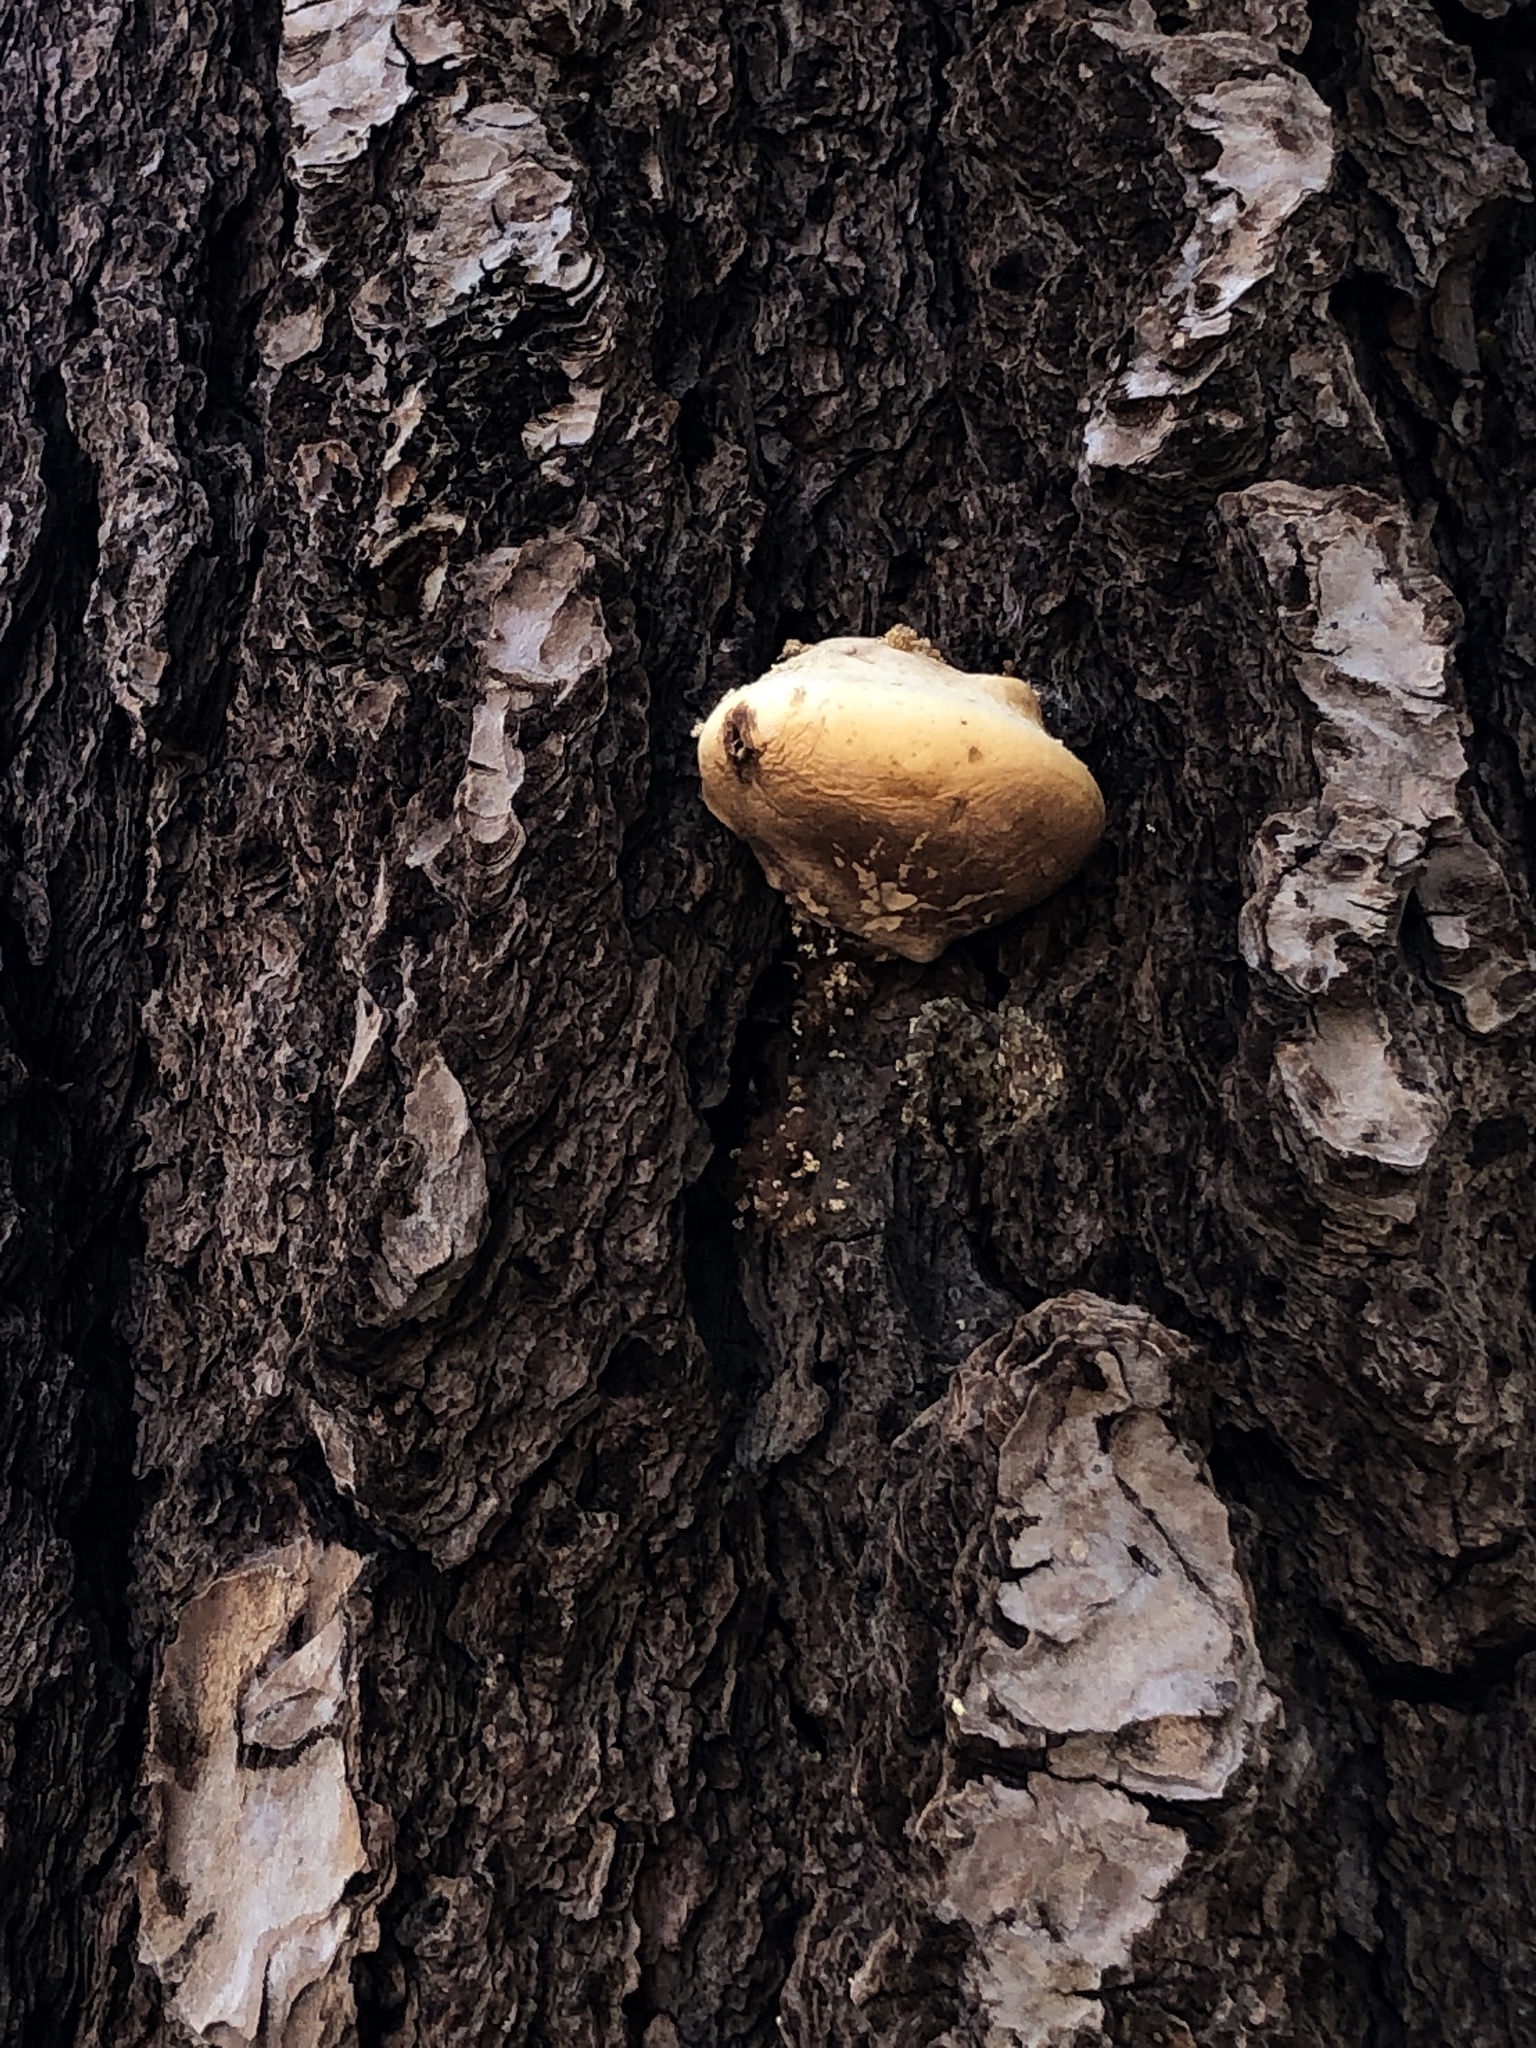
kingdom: Fungi
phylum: Basidiomycota
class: Agaricomycetes
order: Polyporales
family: Polyporaceae
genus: Cryptoporus
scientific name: Cryptoporus volvatus
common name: Veiled polypore
